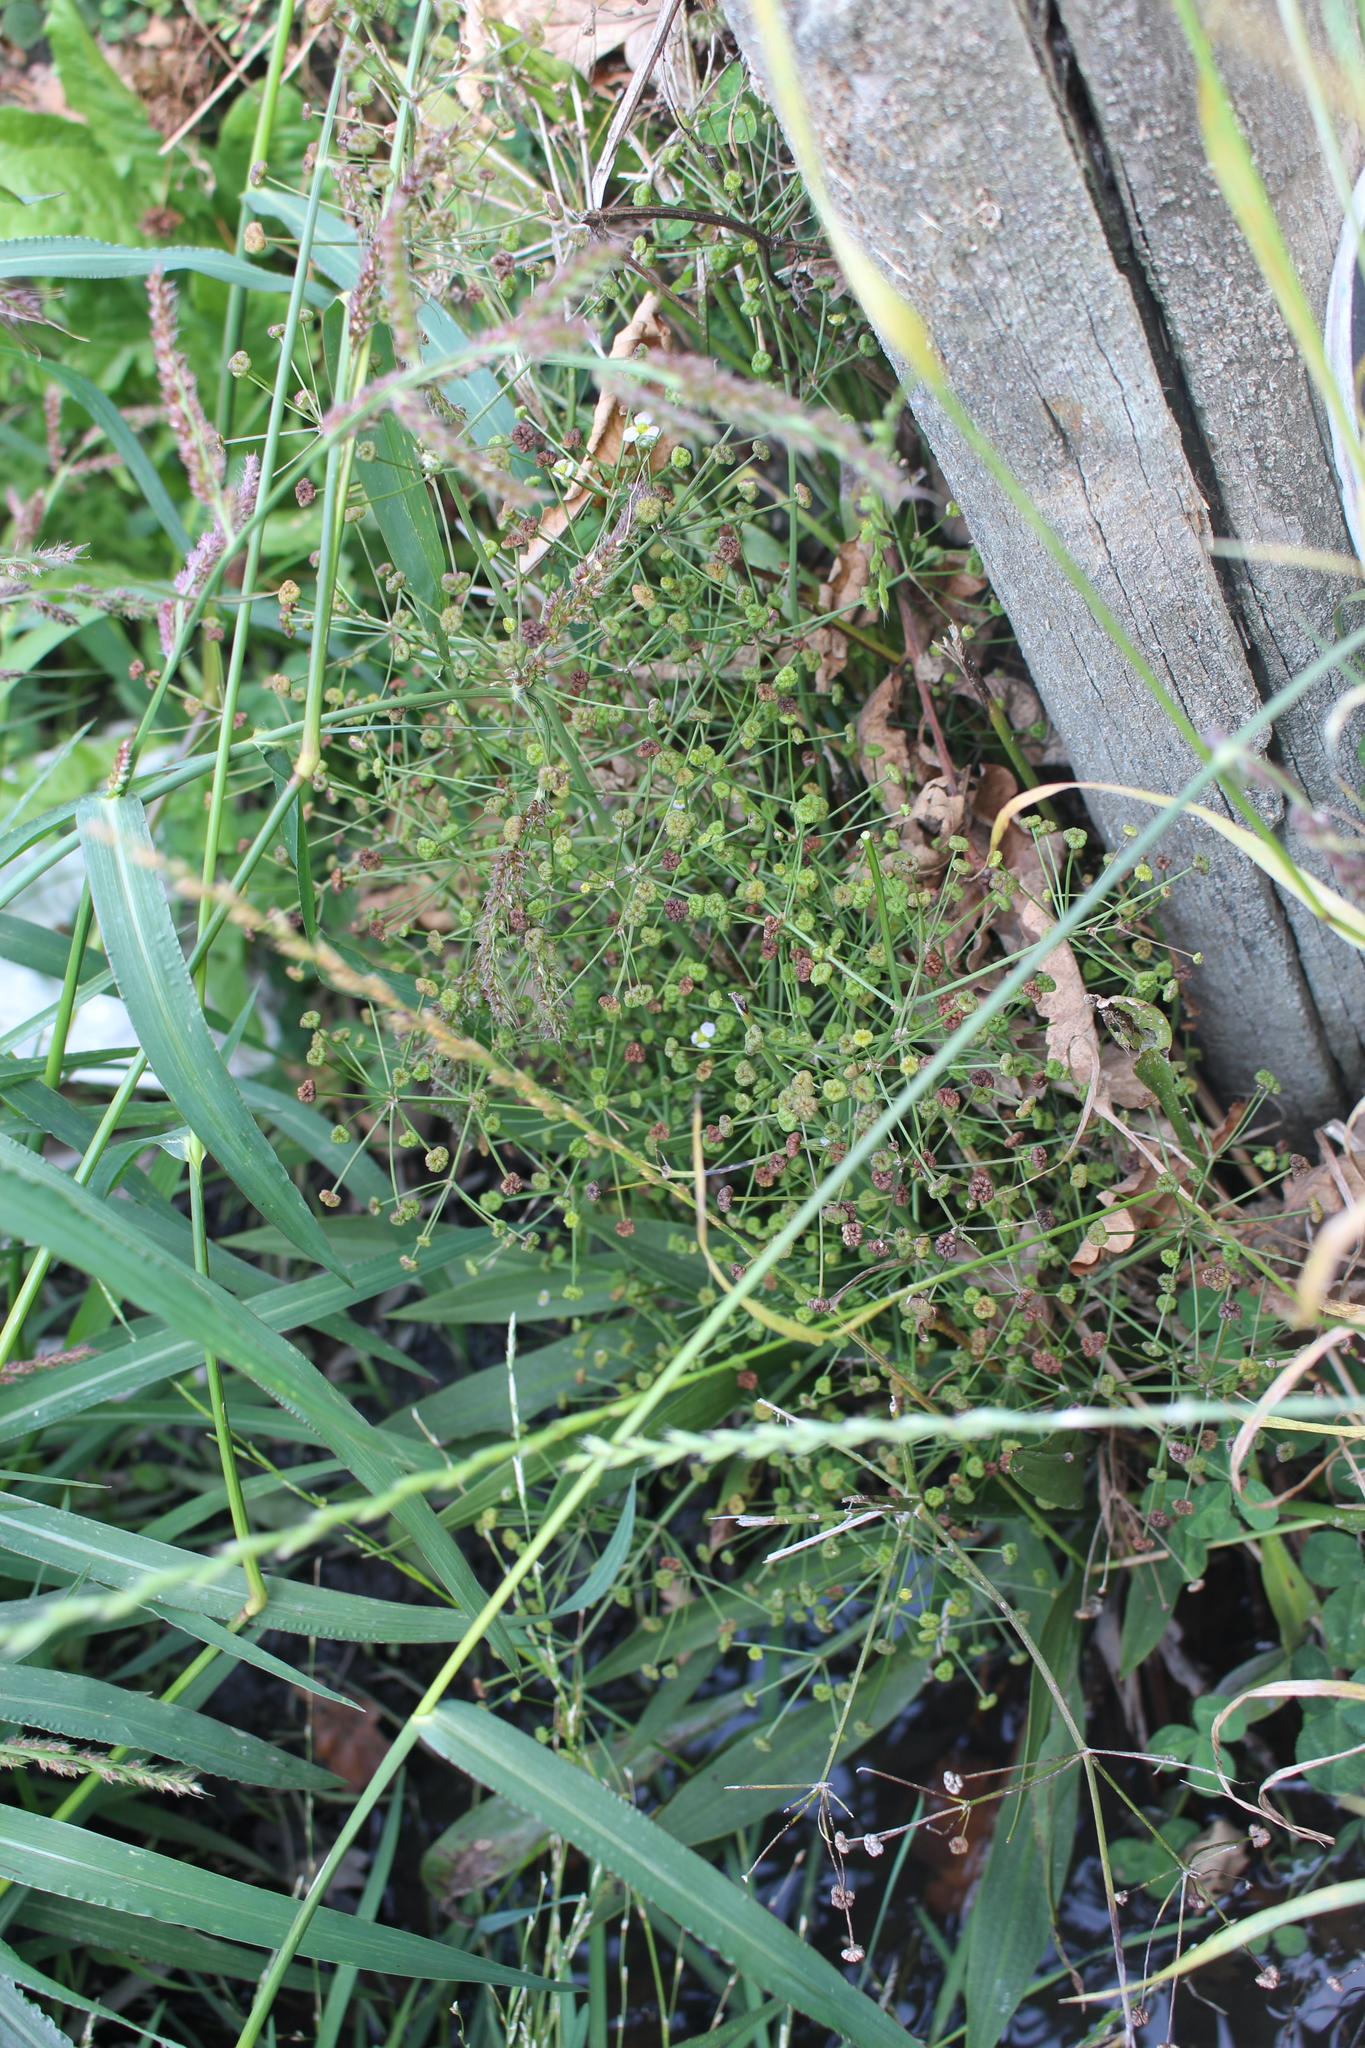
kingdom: Plantae
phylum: Tracheophyta
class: Liliopsida
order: Alismatales
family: Alismataceae
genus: Alisma
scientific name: Alisma lanceolatum
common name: Narrow-leaved water-plantain
